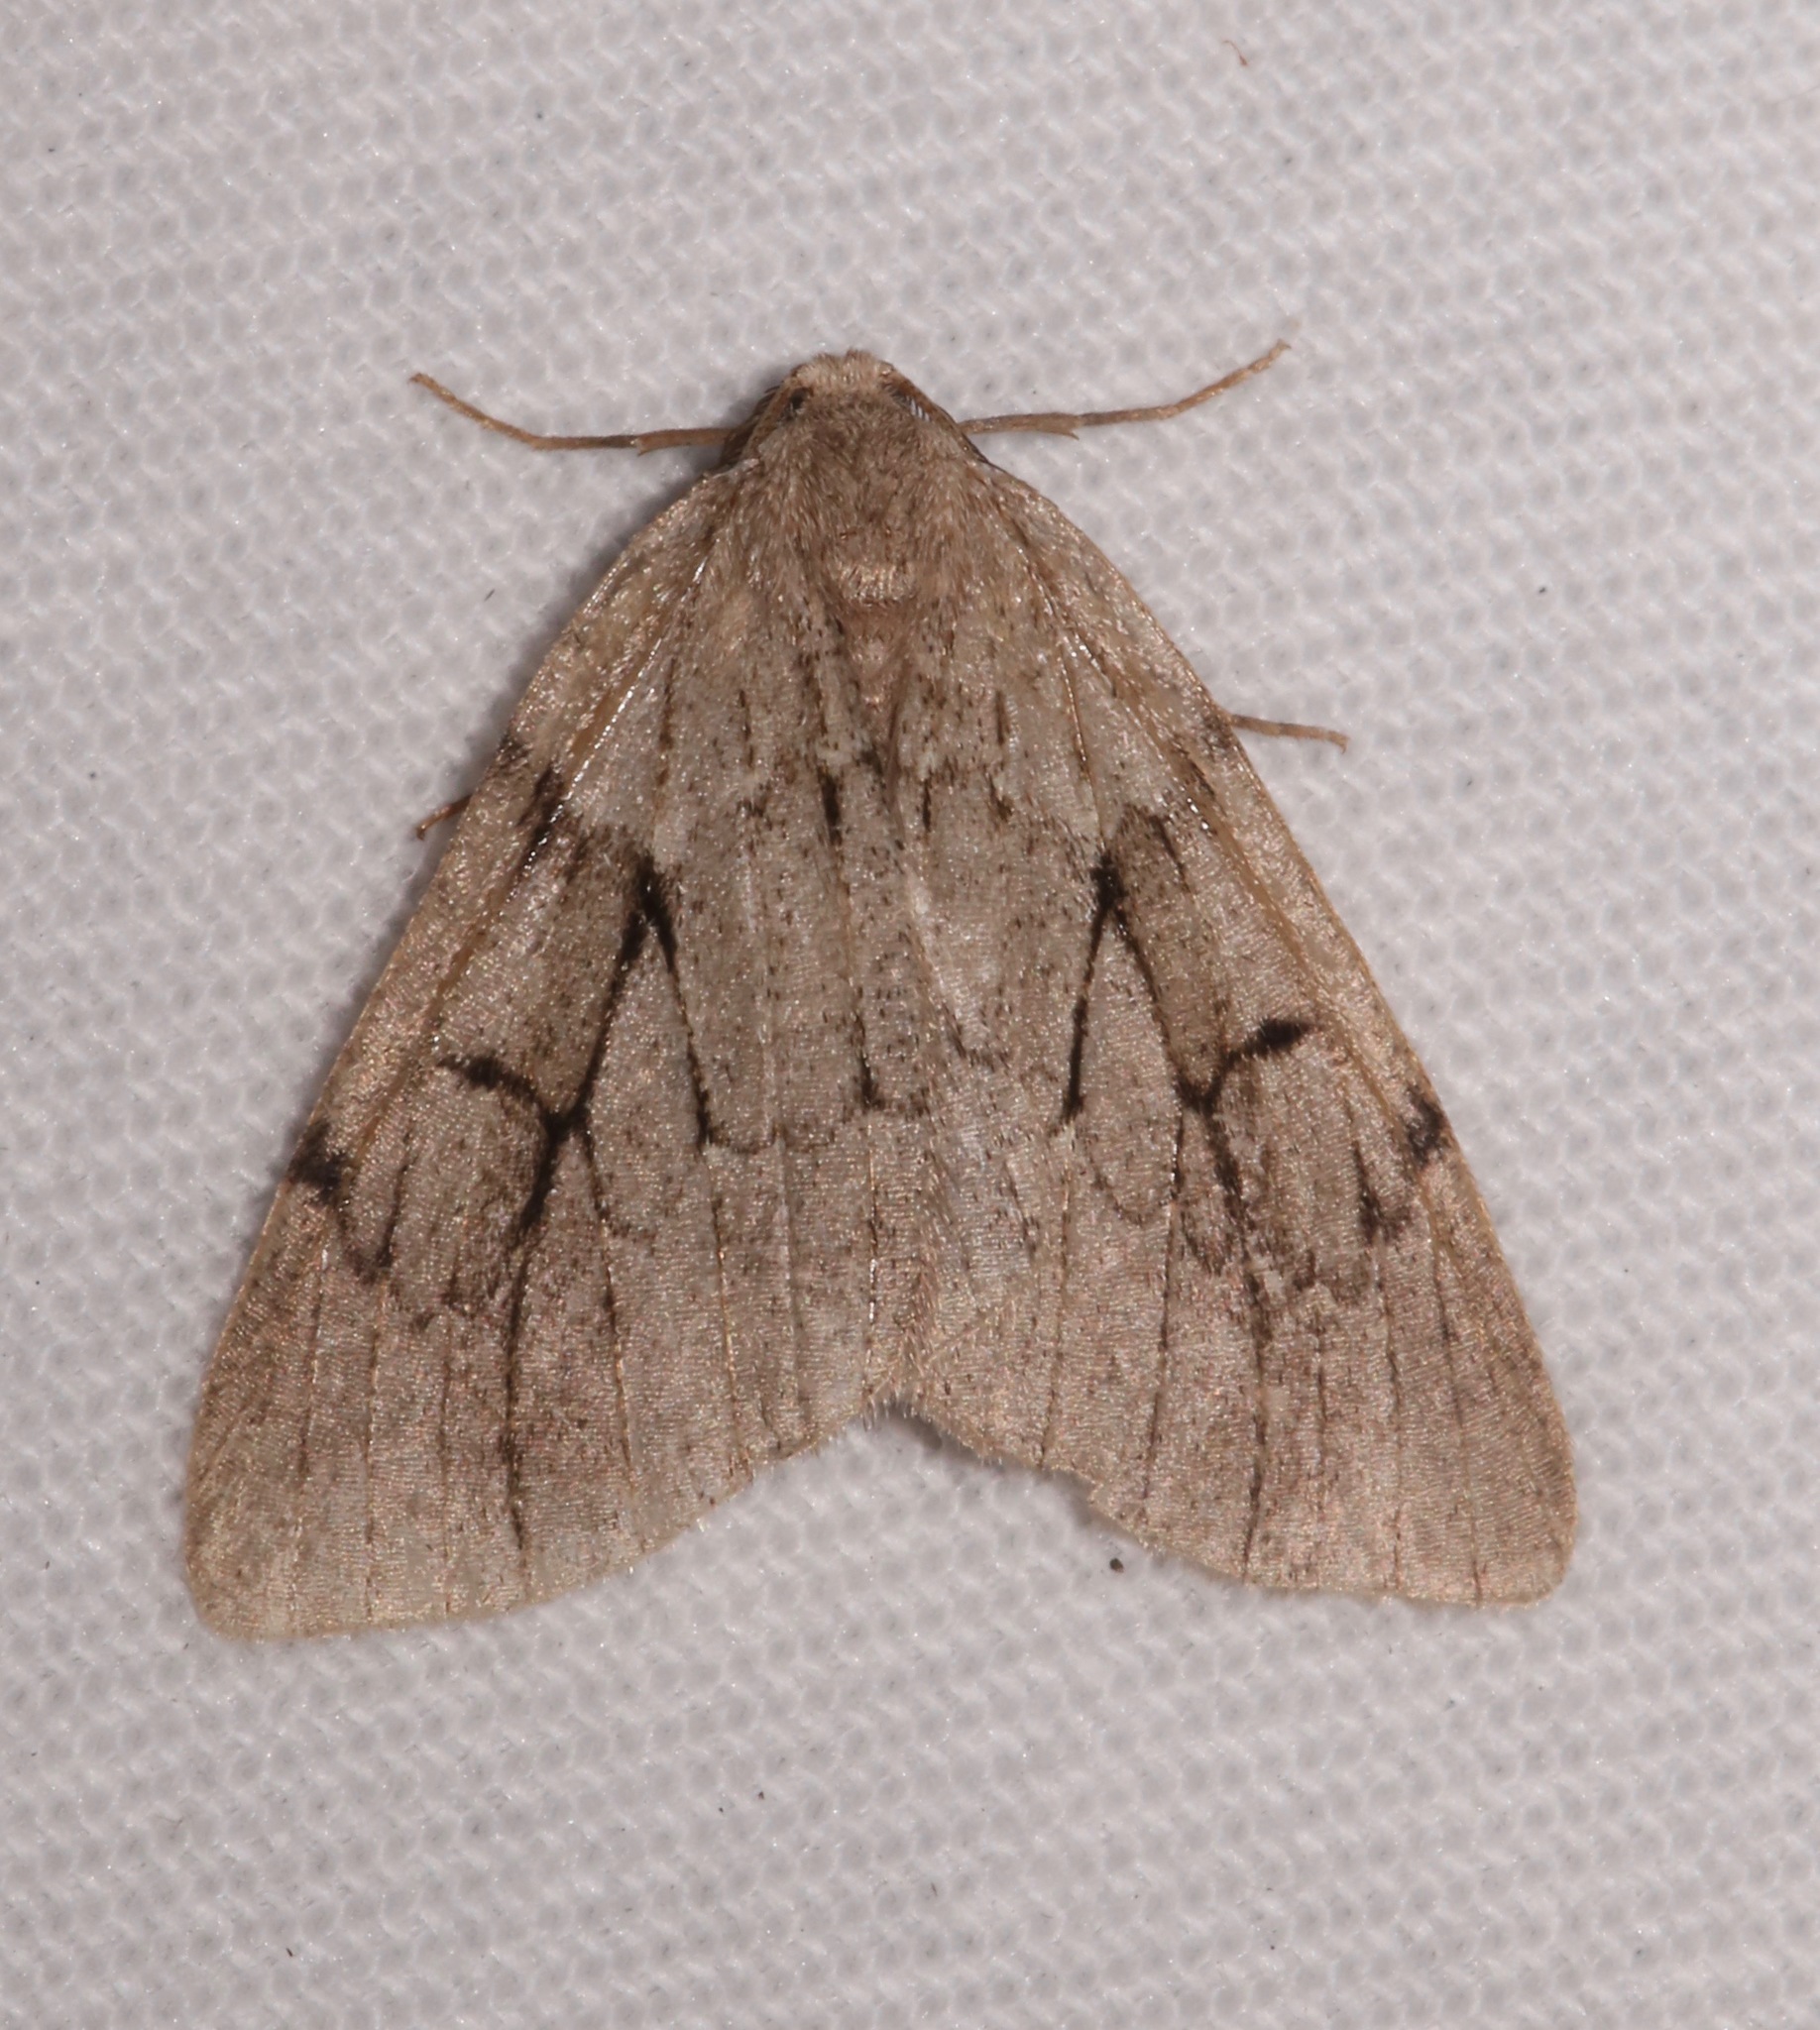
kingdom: Animalia
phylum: Arthropoda
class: Insecta
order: Lepidoptera
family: Geometridae
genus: Nepytia
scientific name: Nepytia swetti
